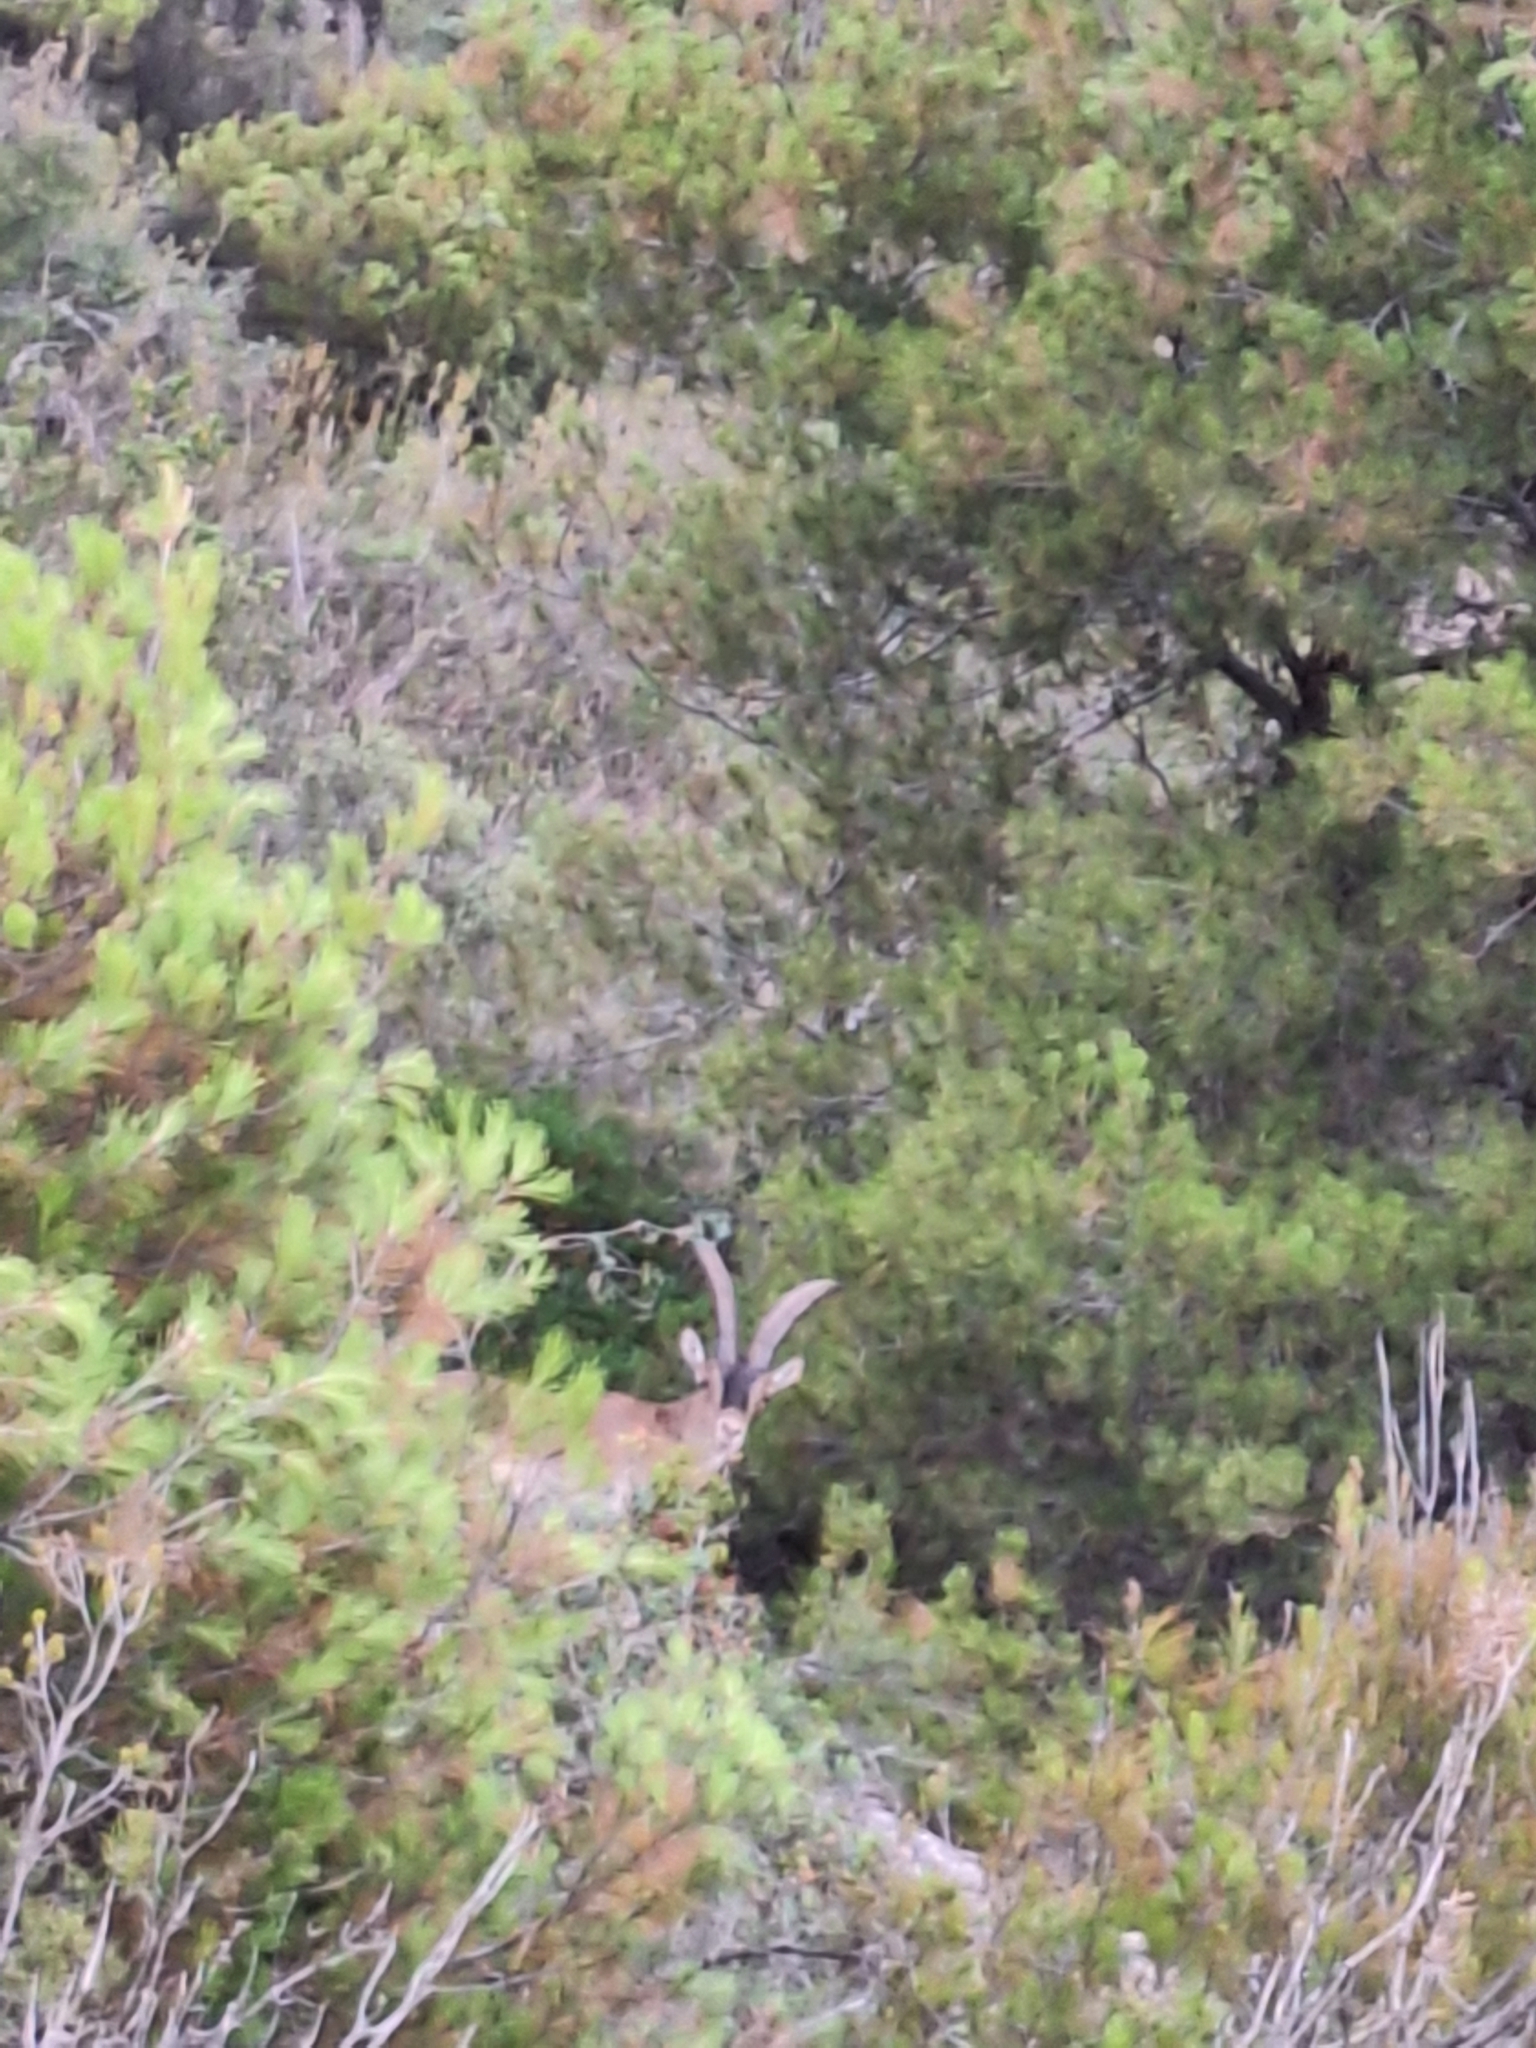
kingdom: Animalia
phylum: Chordata
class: Mammalia
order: Artiodactyla
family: Bovidae
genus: Capra
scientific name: Capra pyrenaica
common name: Spanish ibex
